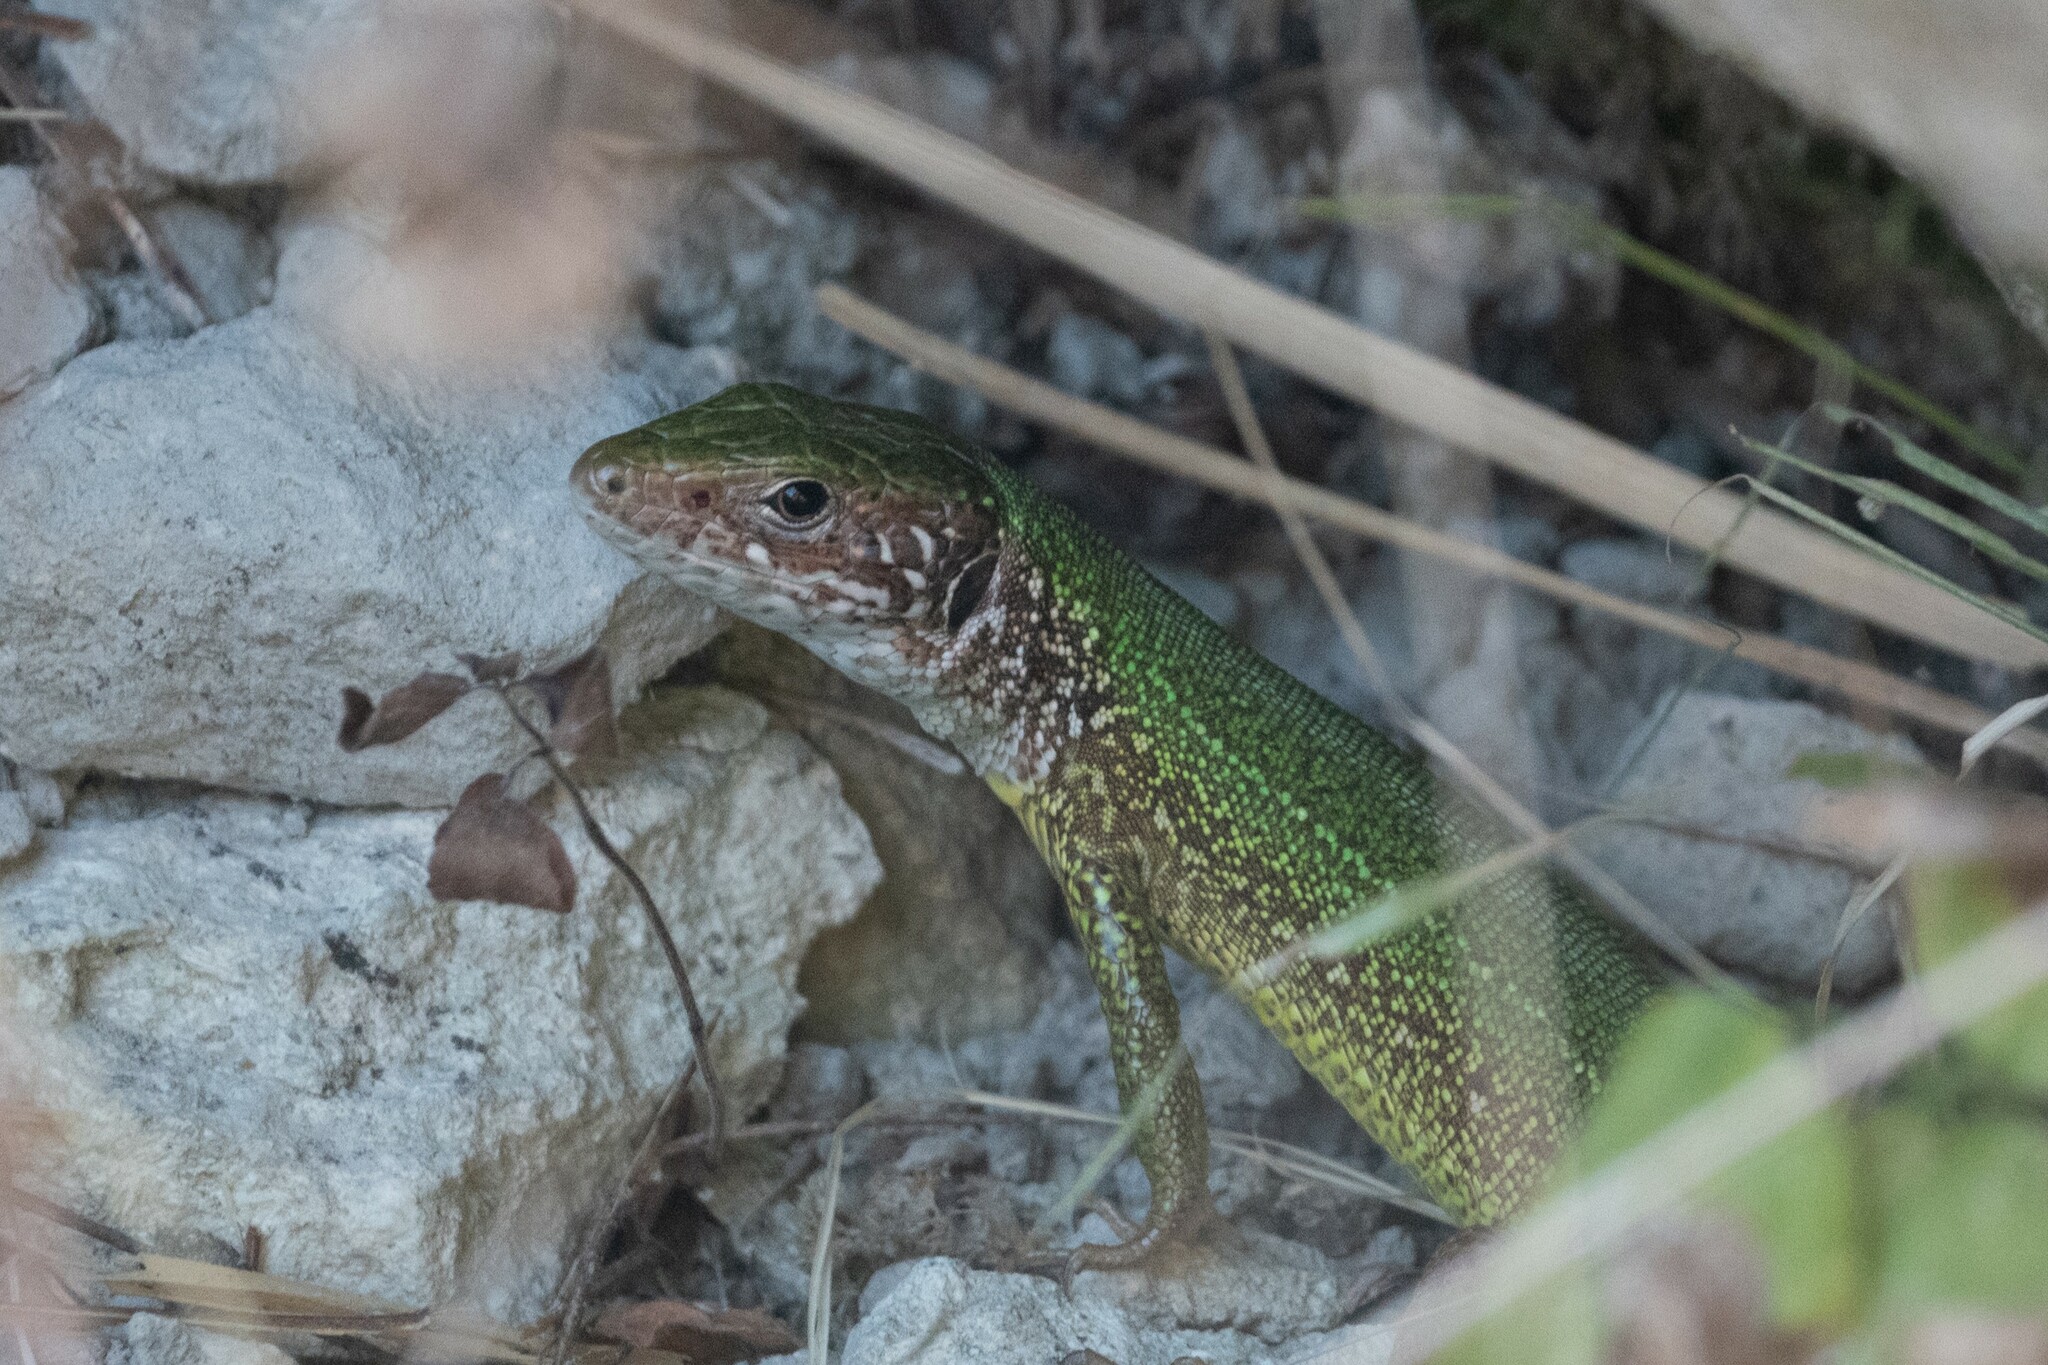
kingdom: Animalia
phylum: Chordata
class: Squamata
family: Lacertidae
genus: Lacerta
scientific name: Lacerta viridis
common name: European green lizard
